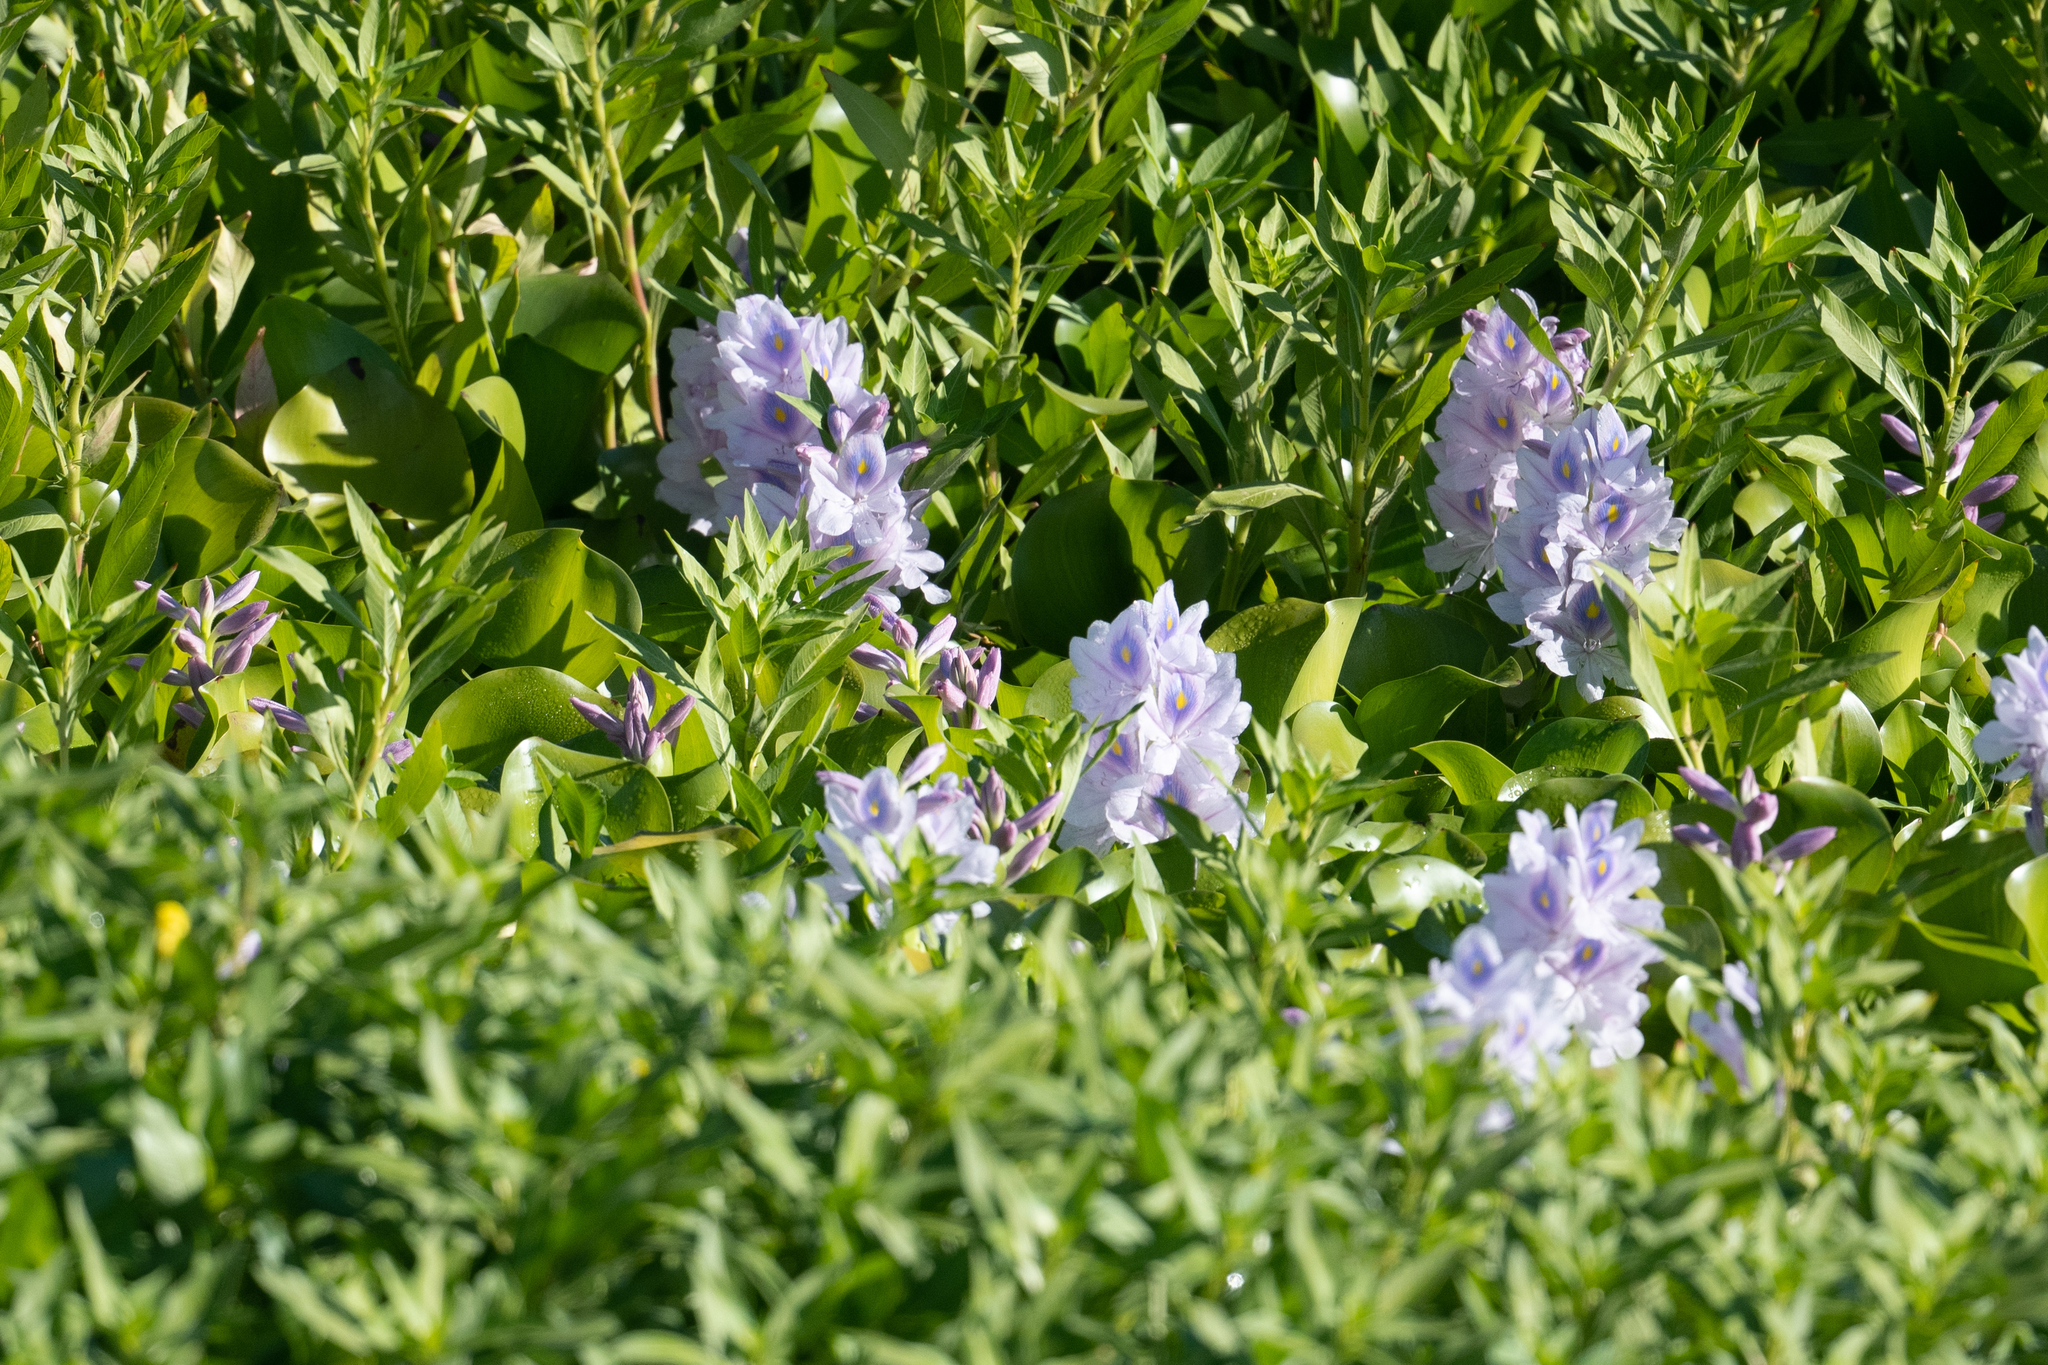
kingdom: Plantae
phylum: Tracheophyta
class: Liliopsida
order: Commelinales
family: Pontederiaceae
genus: Pontederia
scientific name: Pontederia crassipes
